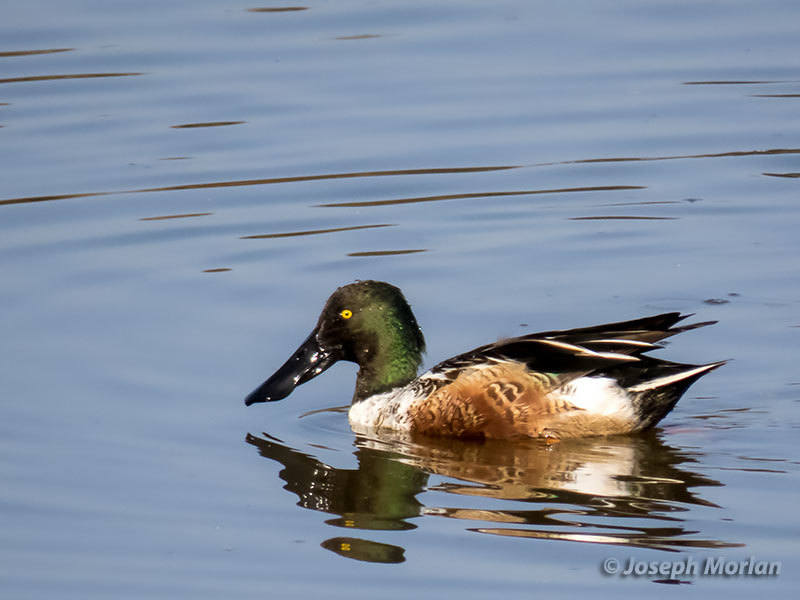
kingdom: Animalia
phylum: Chordata
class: Aves
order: Anseriformes
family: Anatidae
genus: Spatula
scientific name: Spatula clypeata
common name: Northern shoveler
